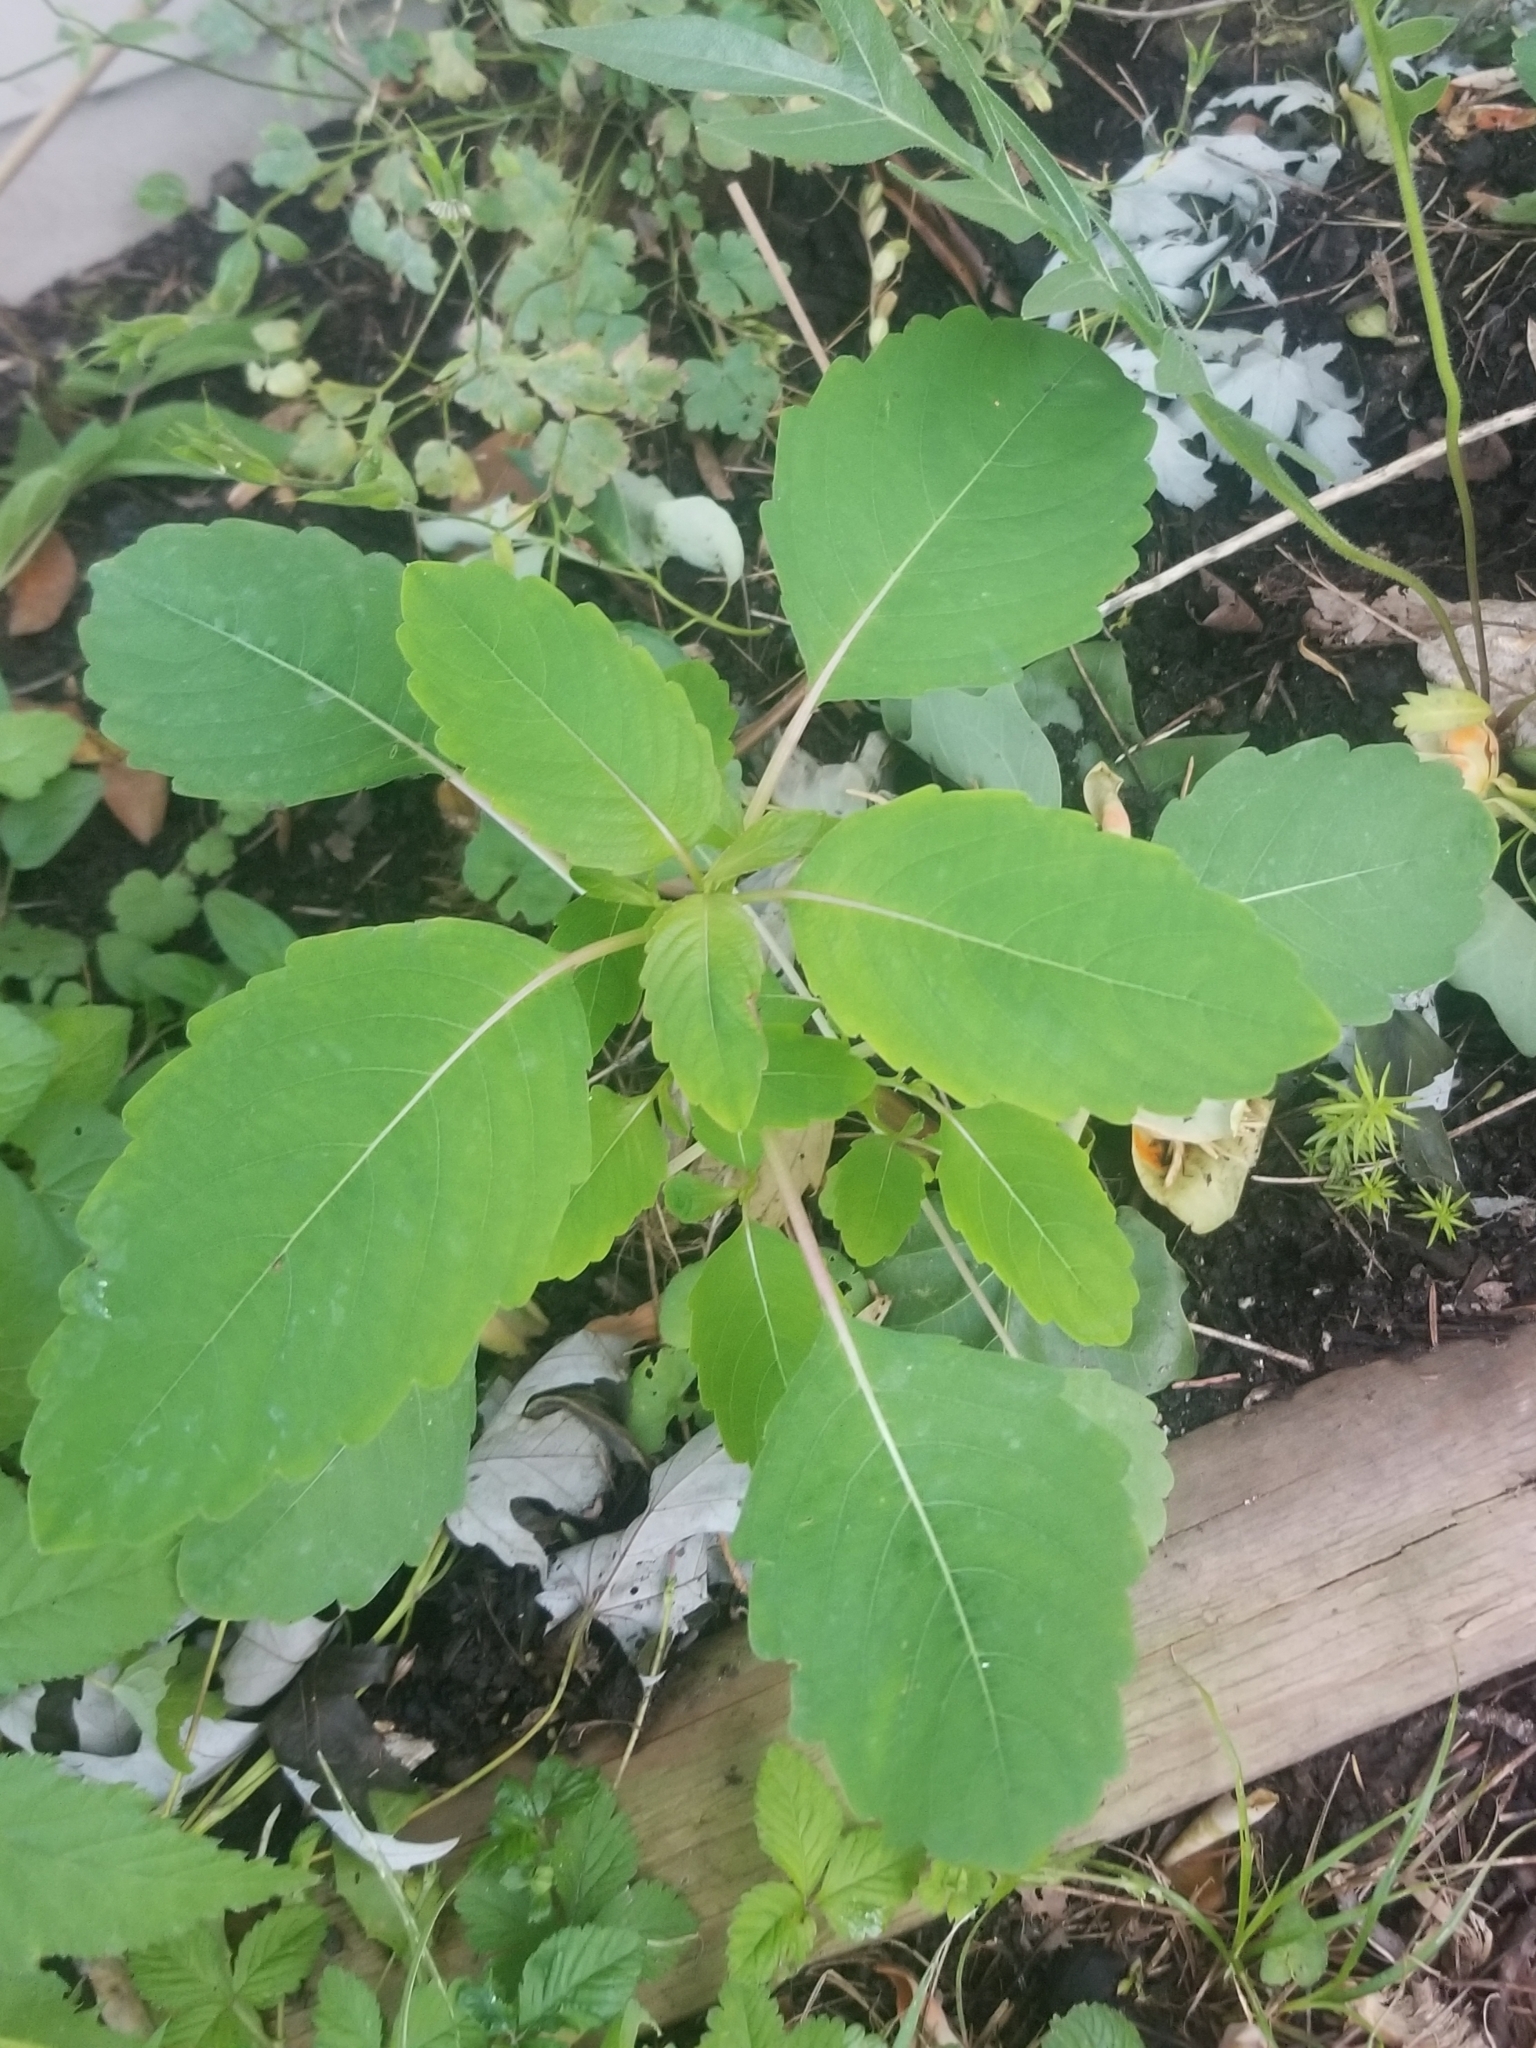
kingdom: Plantae
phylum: Tracheophyta
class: Magnoliopsida
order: Ericales
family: Balsaminaceae
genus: Impatiens
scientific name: Impatiens capensis
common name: Orange balsam
